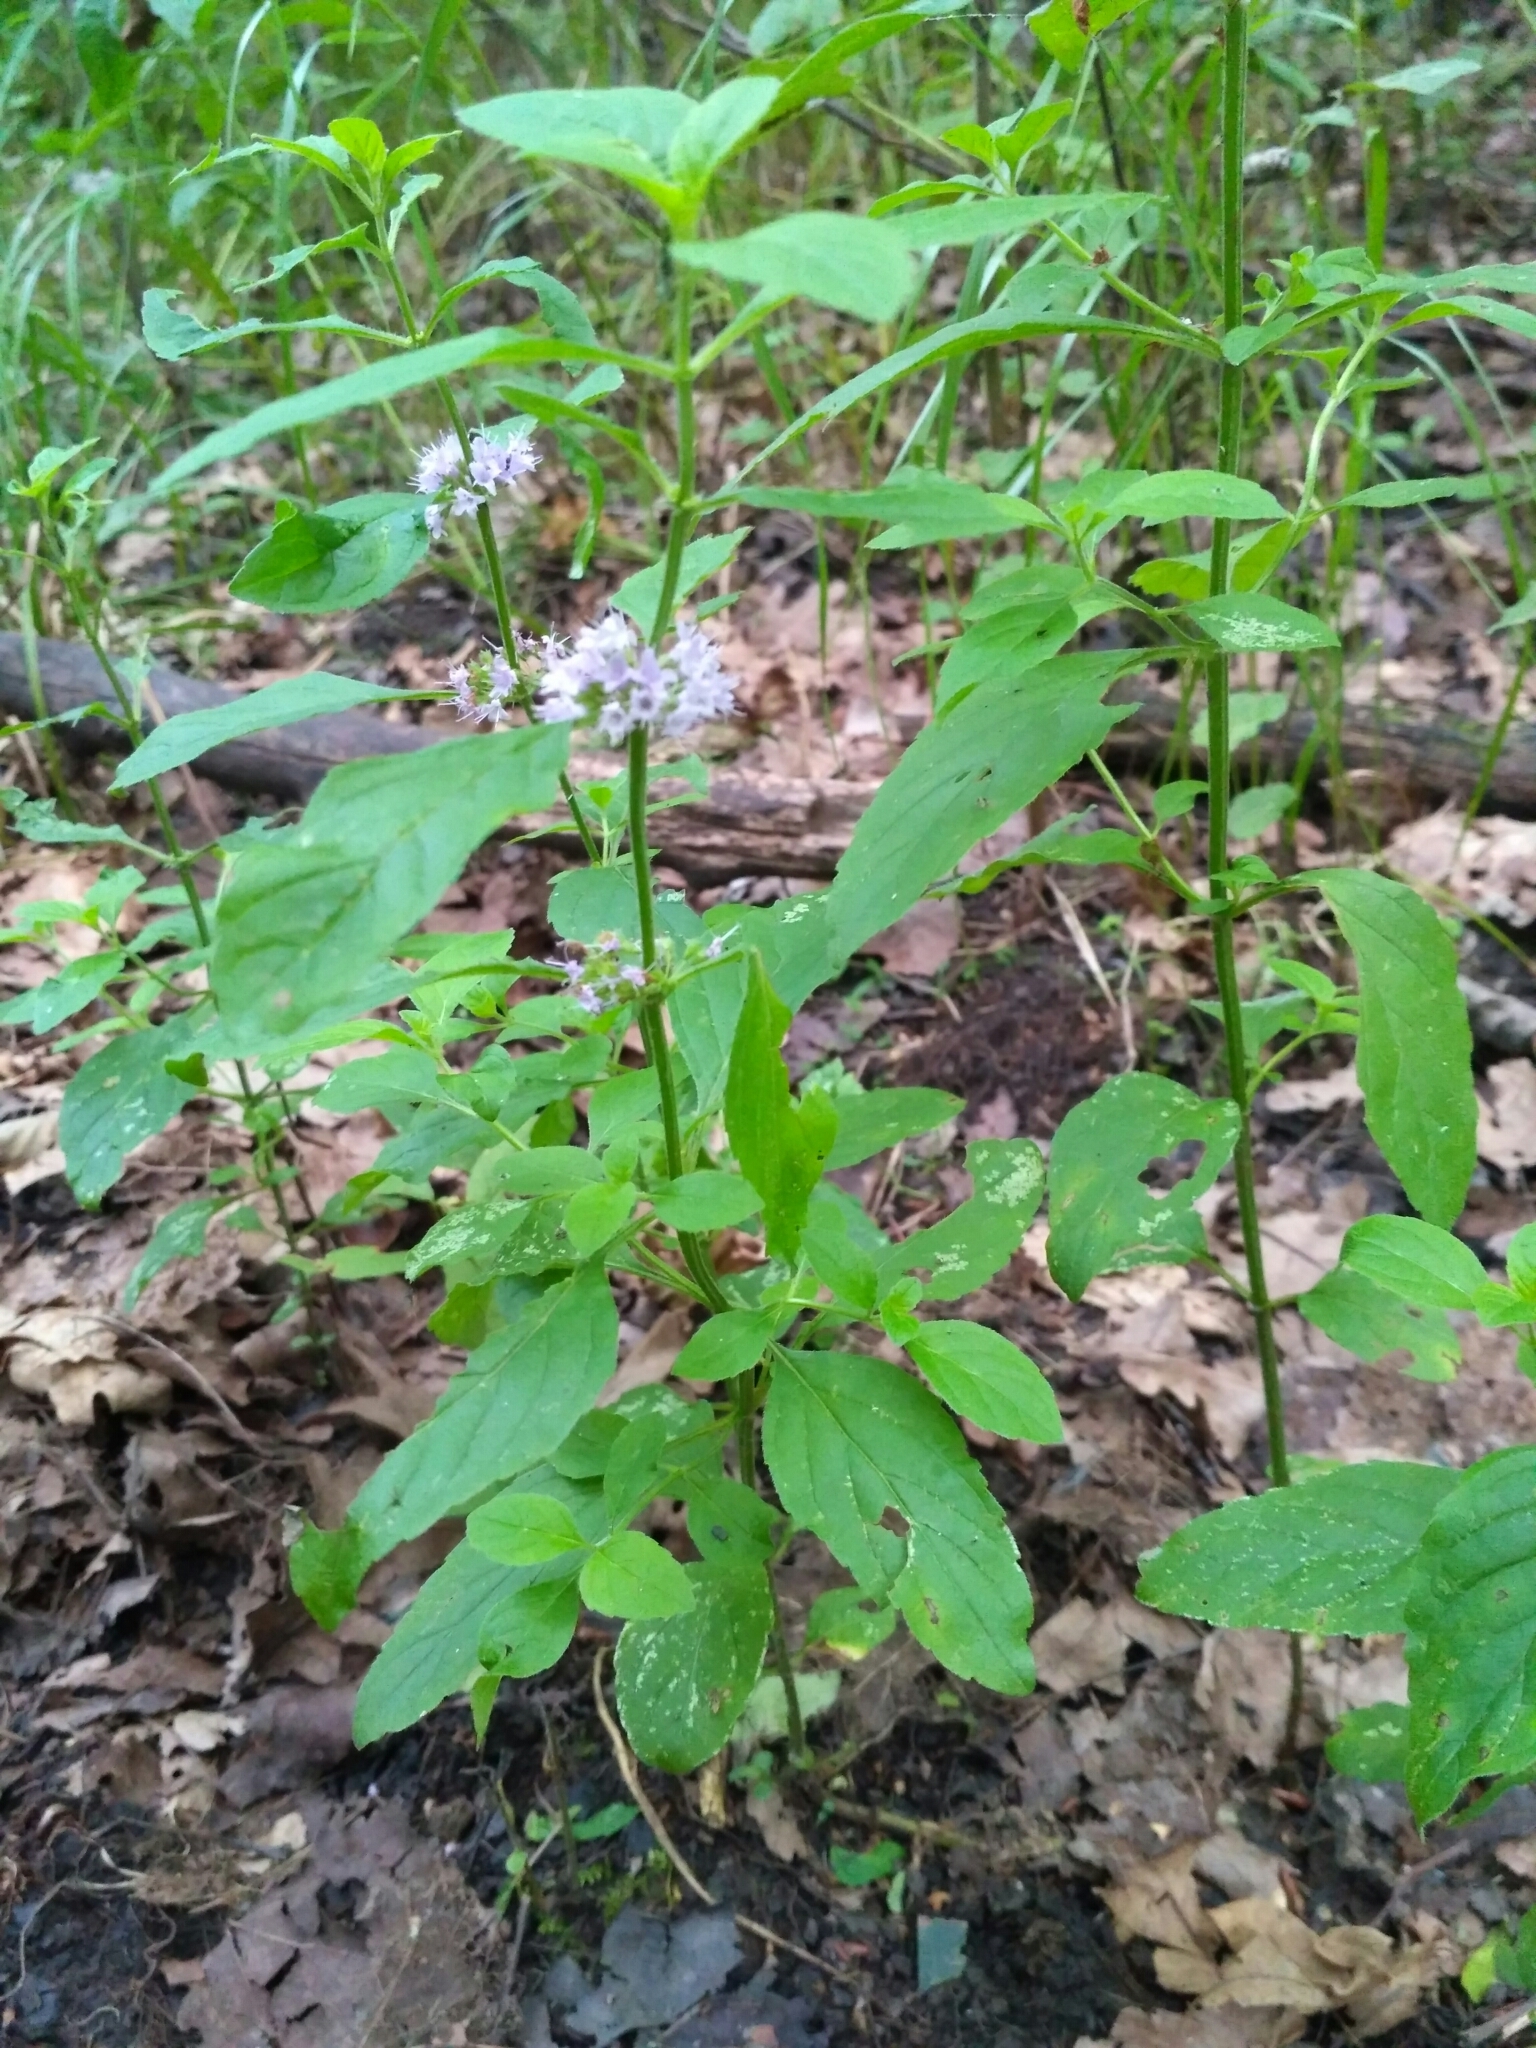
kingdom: Plantae
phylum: Tracheophyta
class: Magnoliopsida
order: Lamiales
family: Lamiaceae
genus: Mentha
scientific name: Mentha arvensis
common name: Corn mint
